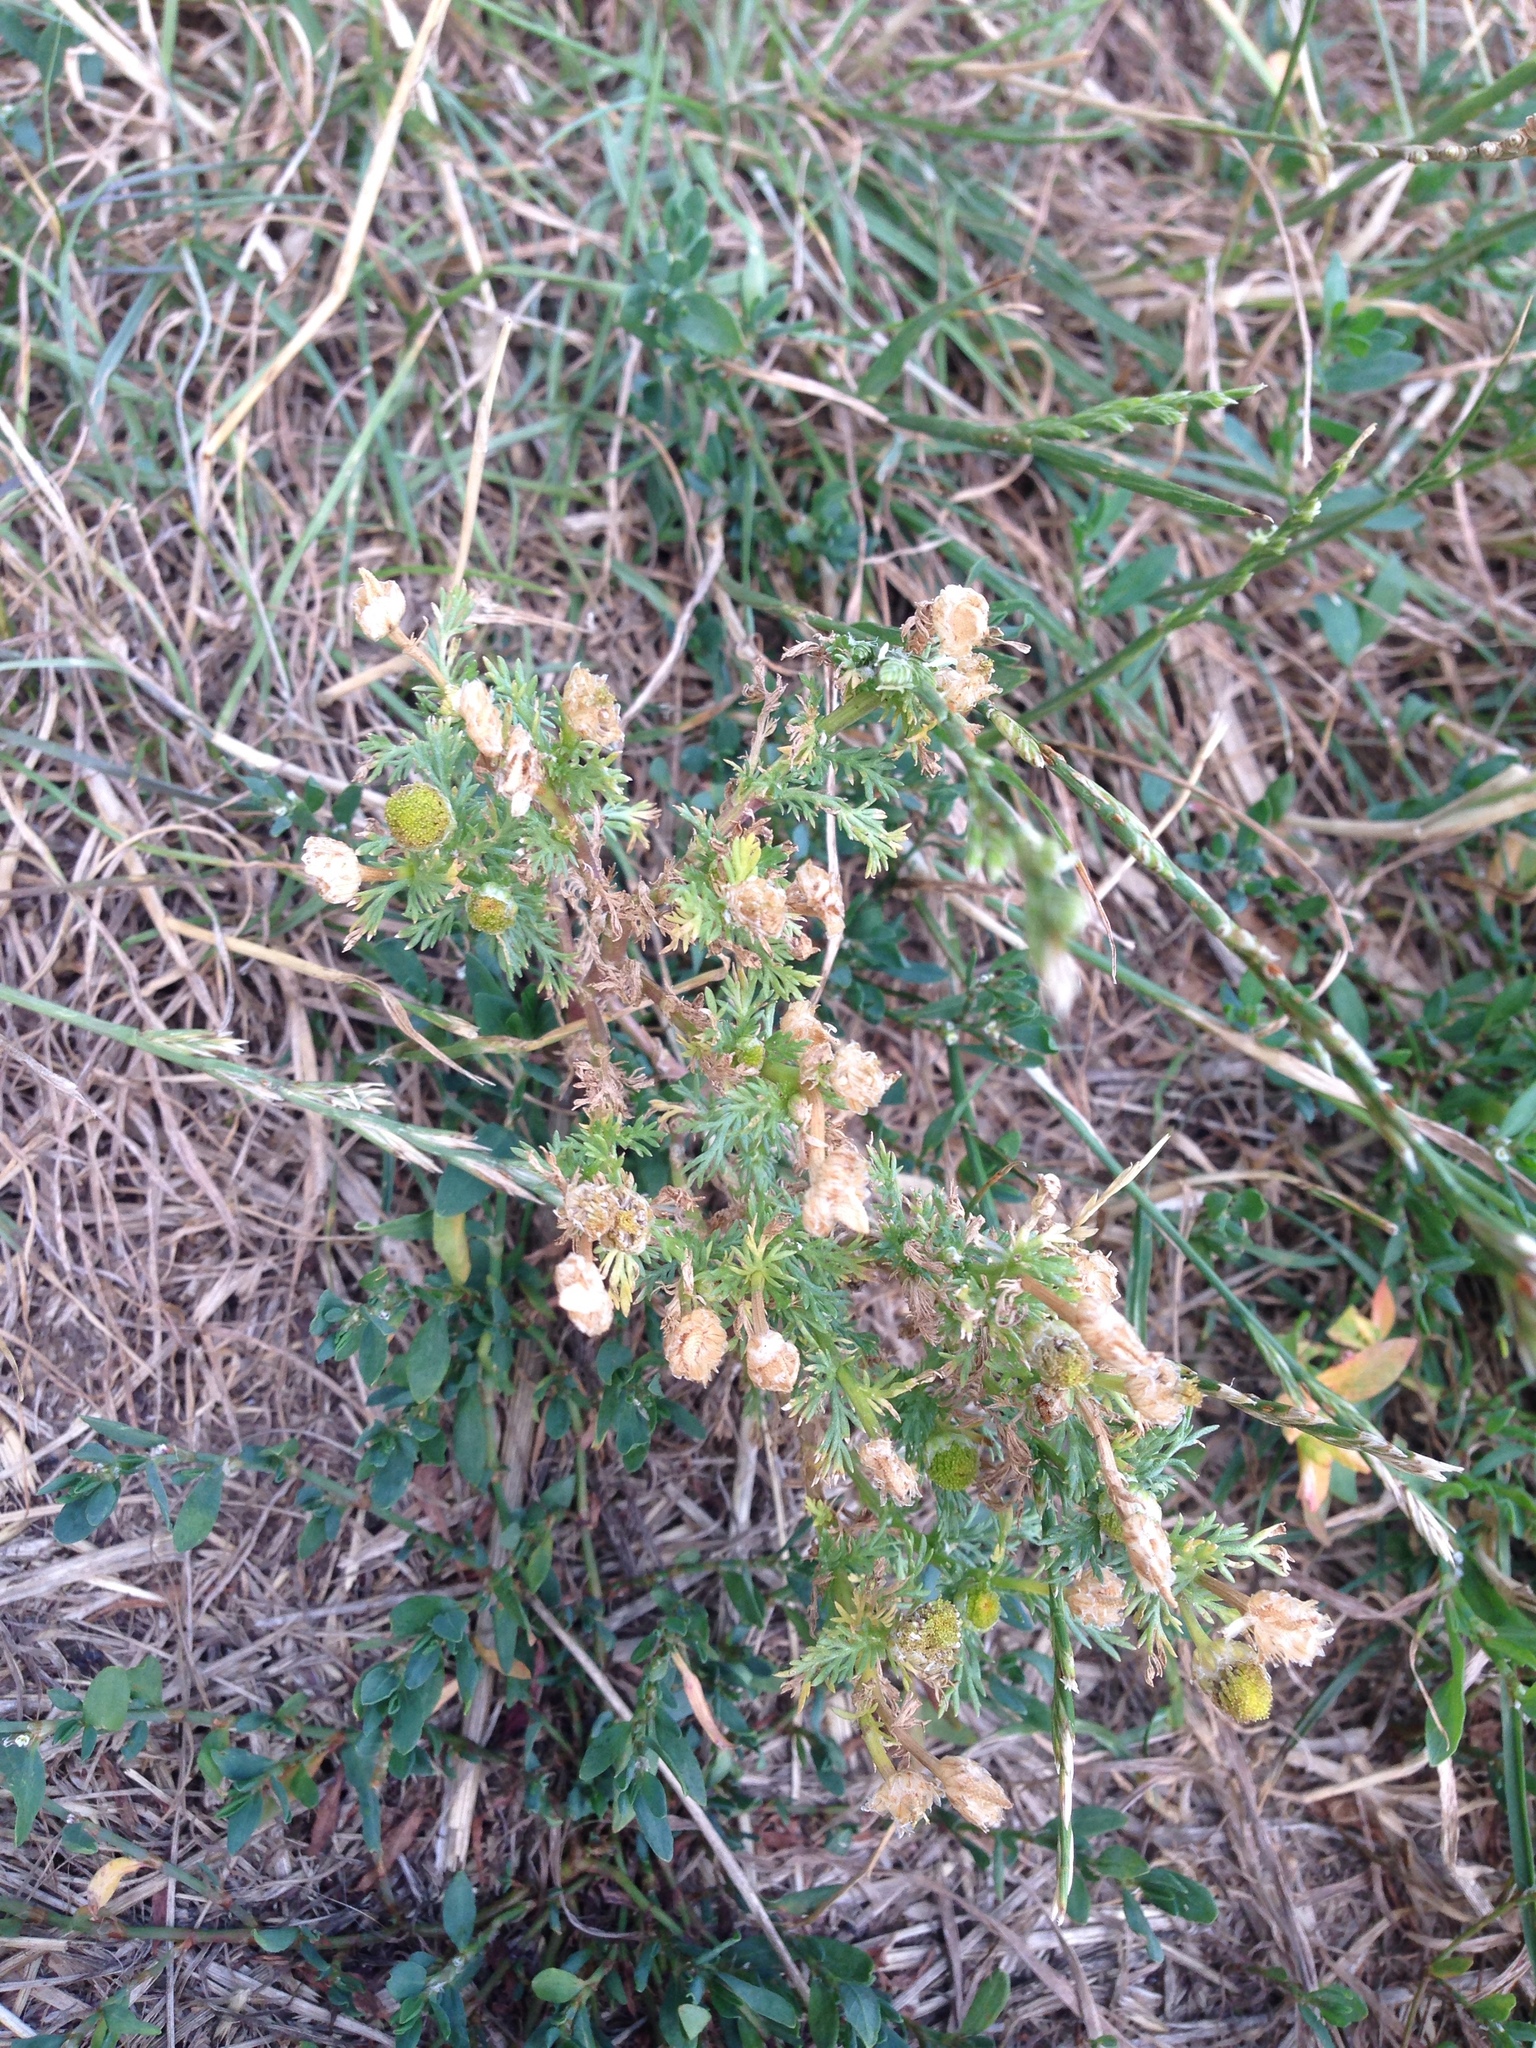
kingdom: Plantae
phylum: Tracheophyta
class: Magnoliopsida
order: Asterales
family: Asteraceae
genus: Matricaria
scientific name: Matricaria discoidea
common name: Disc mayweed
